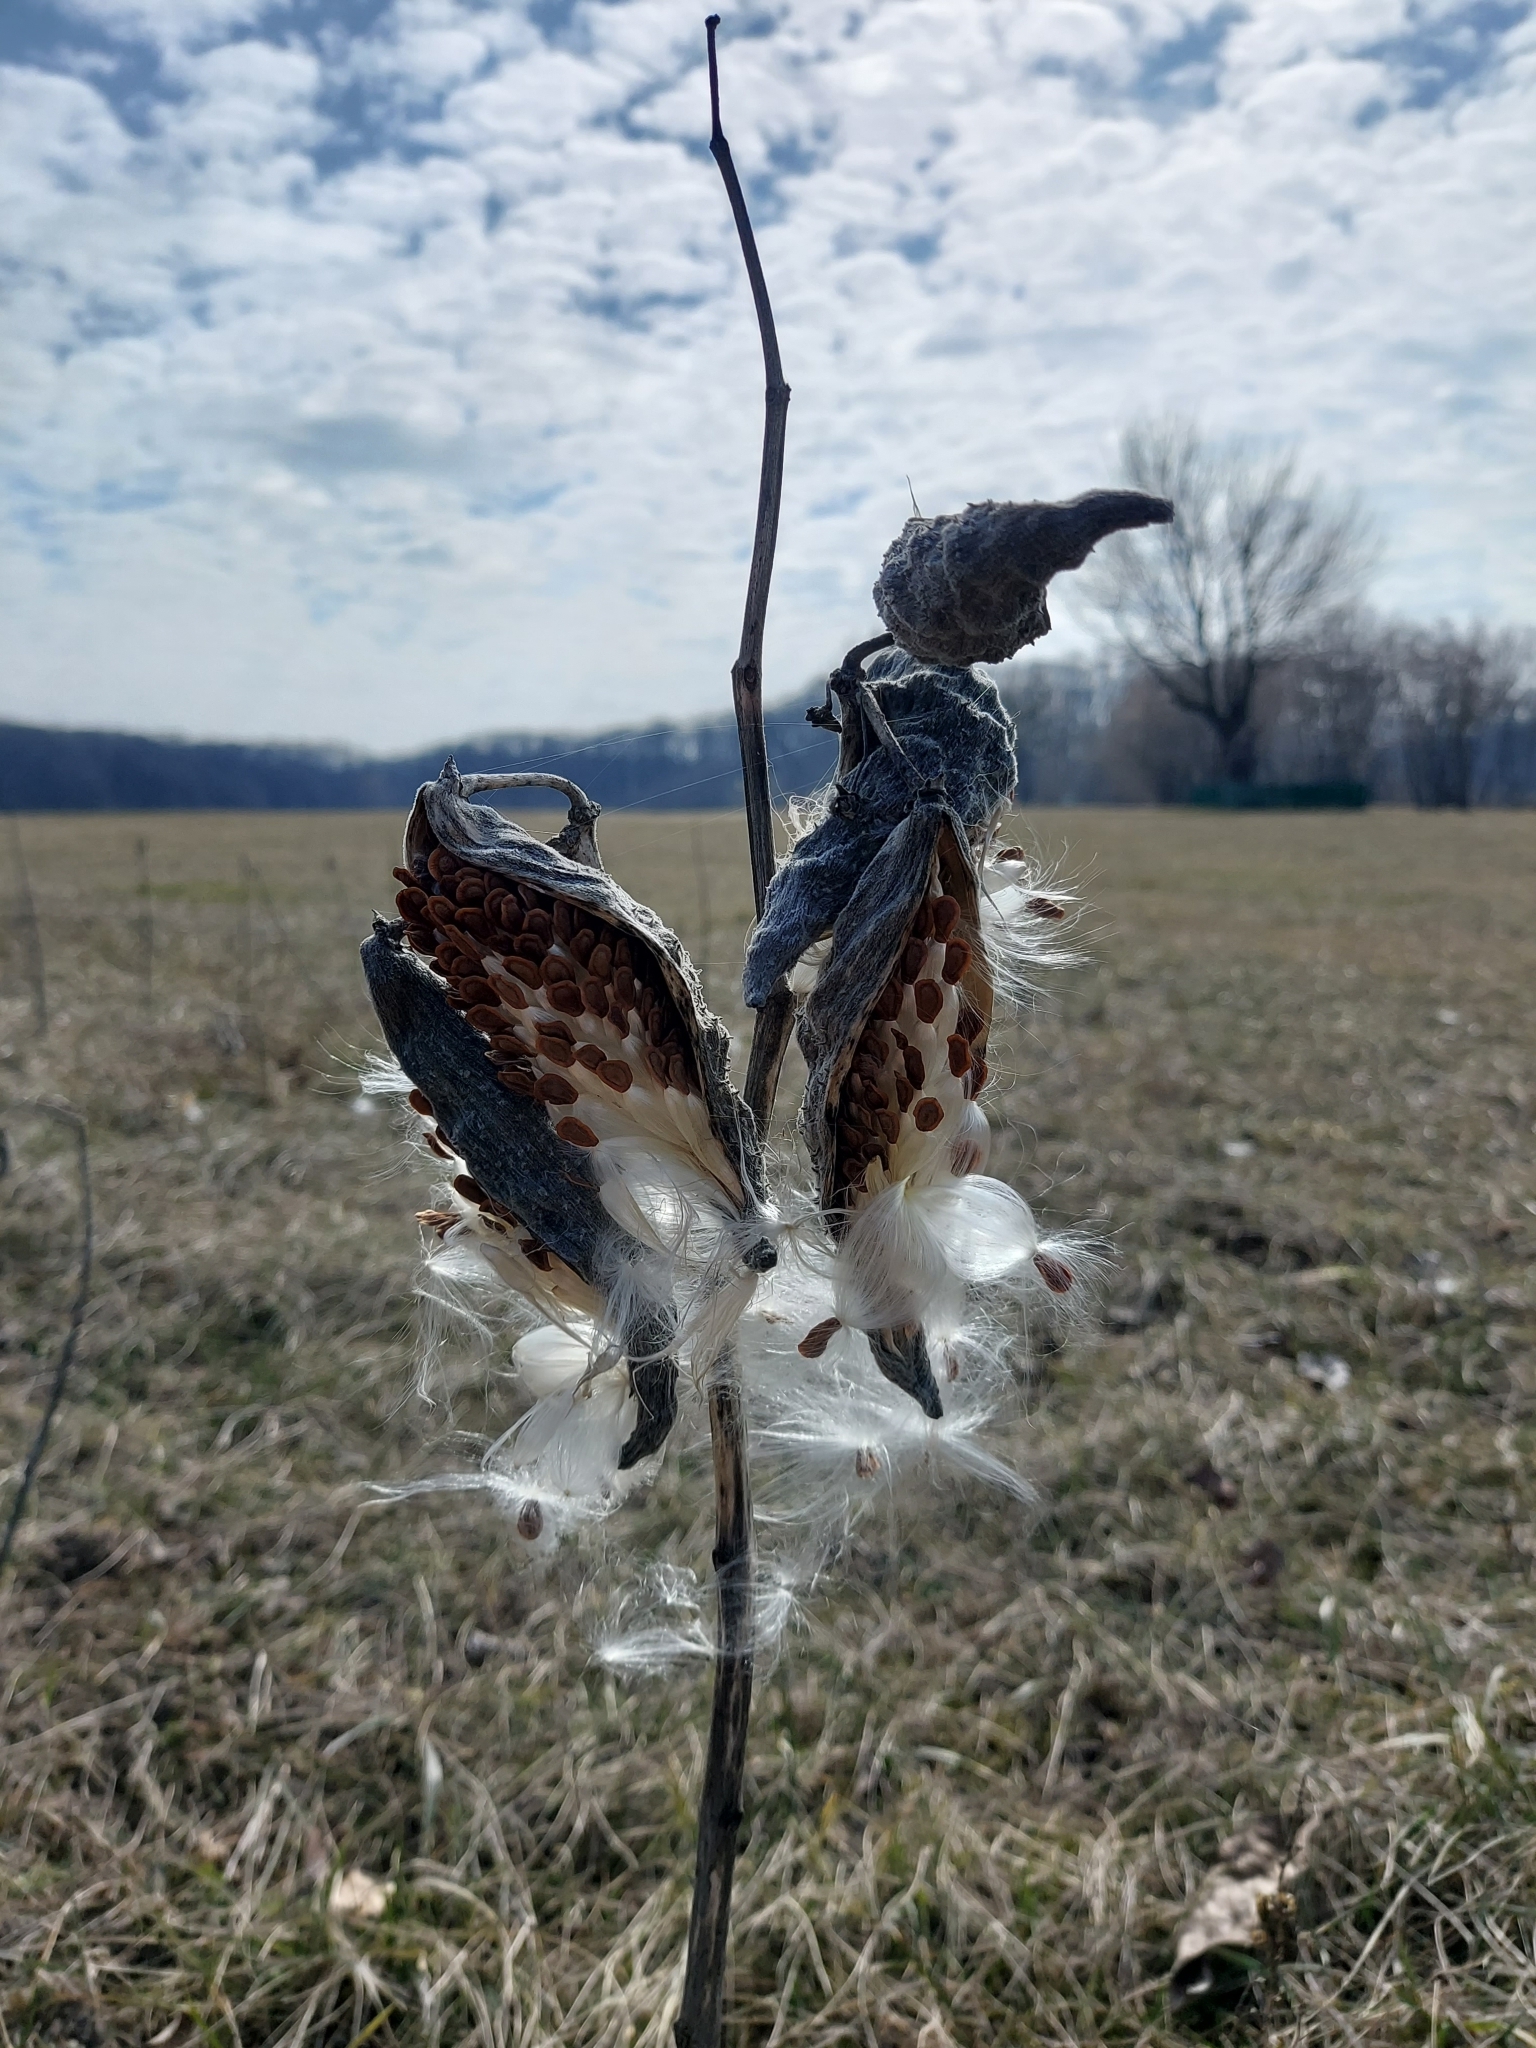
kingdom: Plantae
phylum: Tracheophyta
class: Magnoliopsida
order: Gentianales
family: Apocynaceae
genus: Asclepias
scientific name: Asclepias syriaca
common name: Common milkweed
